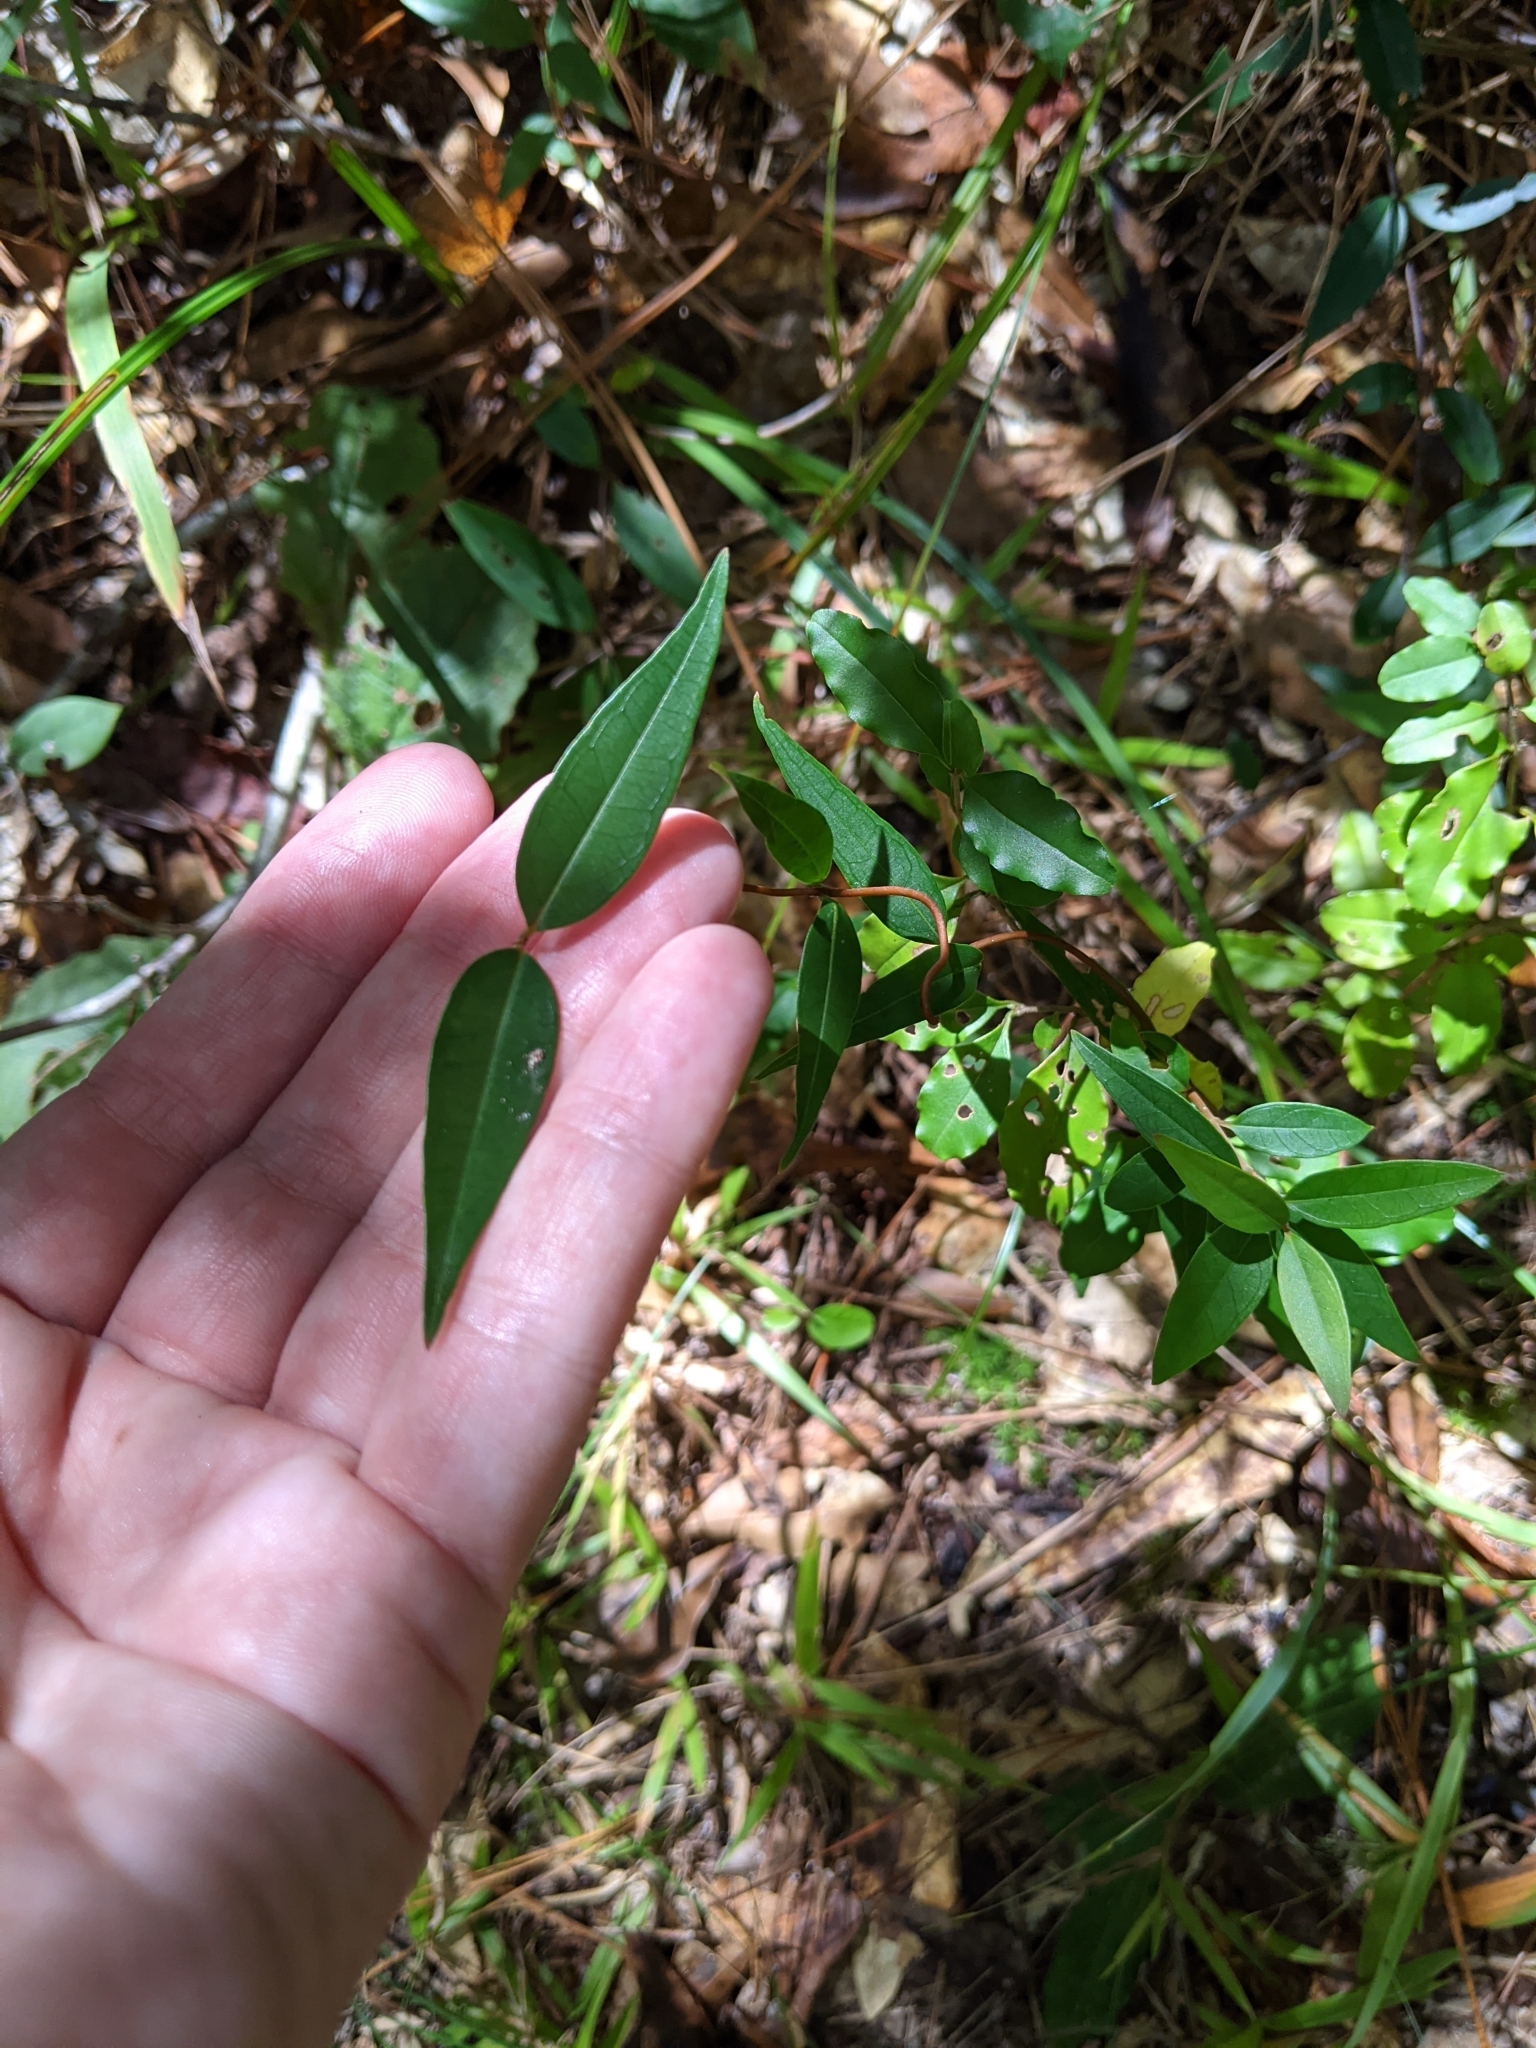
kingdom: Plantae
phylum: Tracheophyta
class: Magnoliopsida
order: Gentianales
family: Gelsemiaceae
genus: Gelsemium
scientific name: Gelsemium sempervirens
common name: Carolina-jasmine
